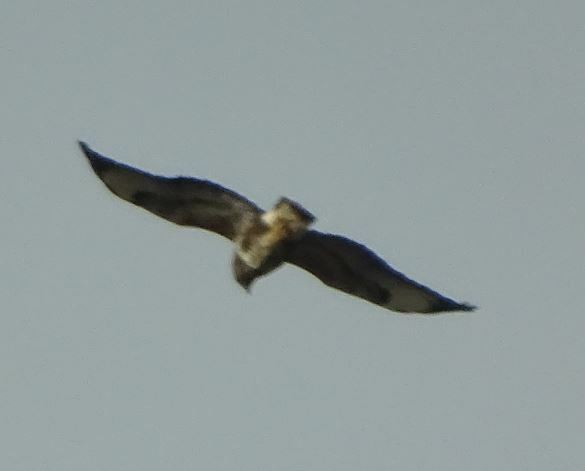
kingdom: Animalia
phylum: Chordata
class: Aves
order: Accipitriformes
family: Accipitridae
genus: Buteo
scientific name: Buteo buteo
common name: Common buzzard
